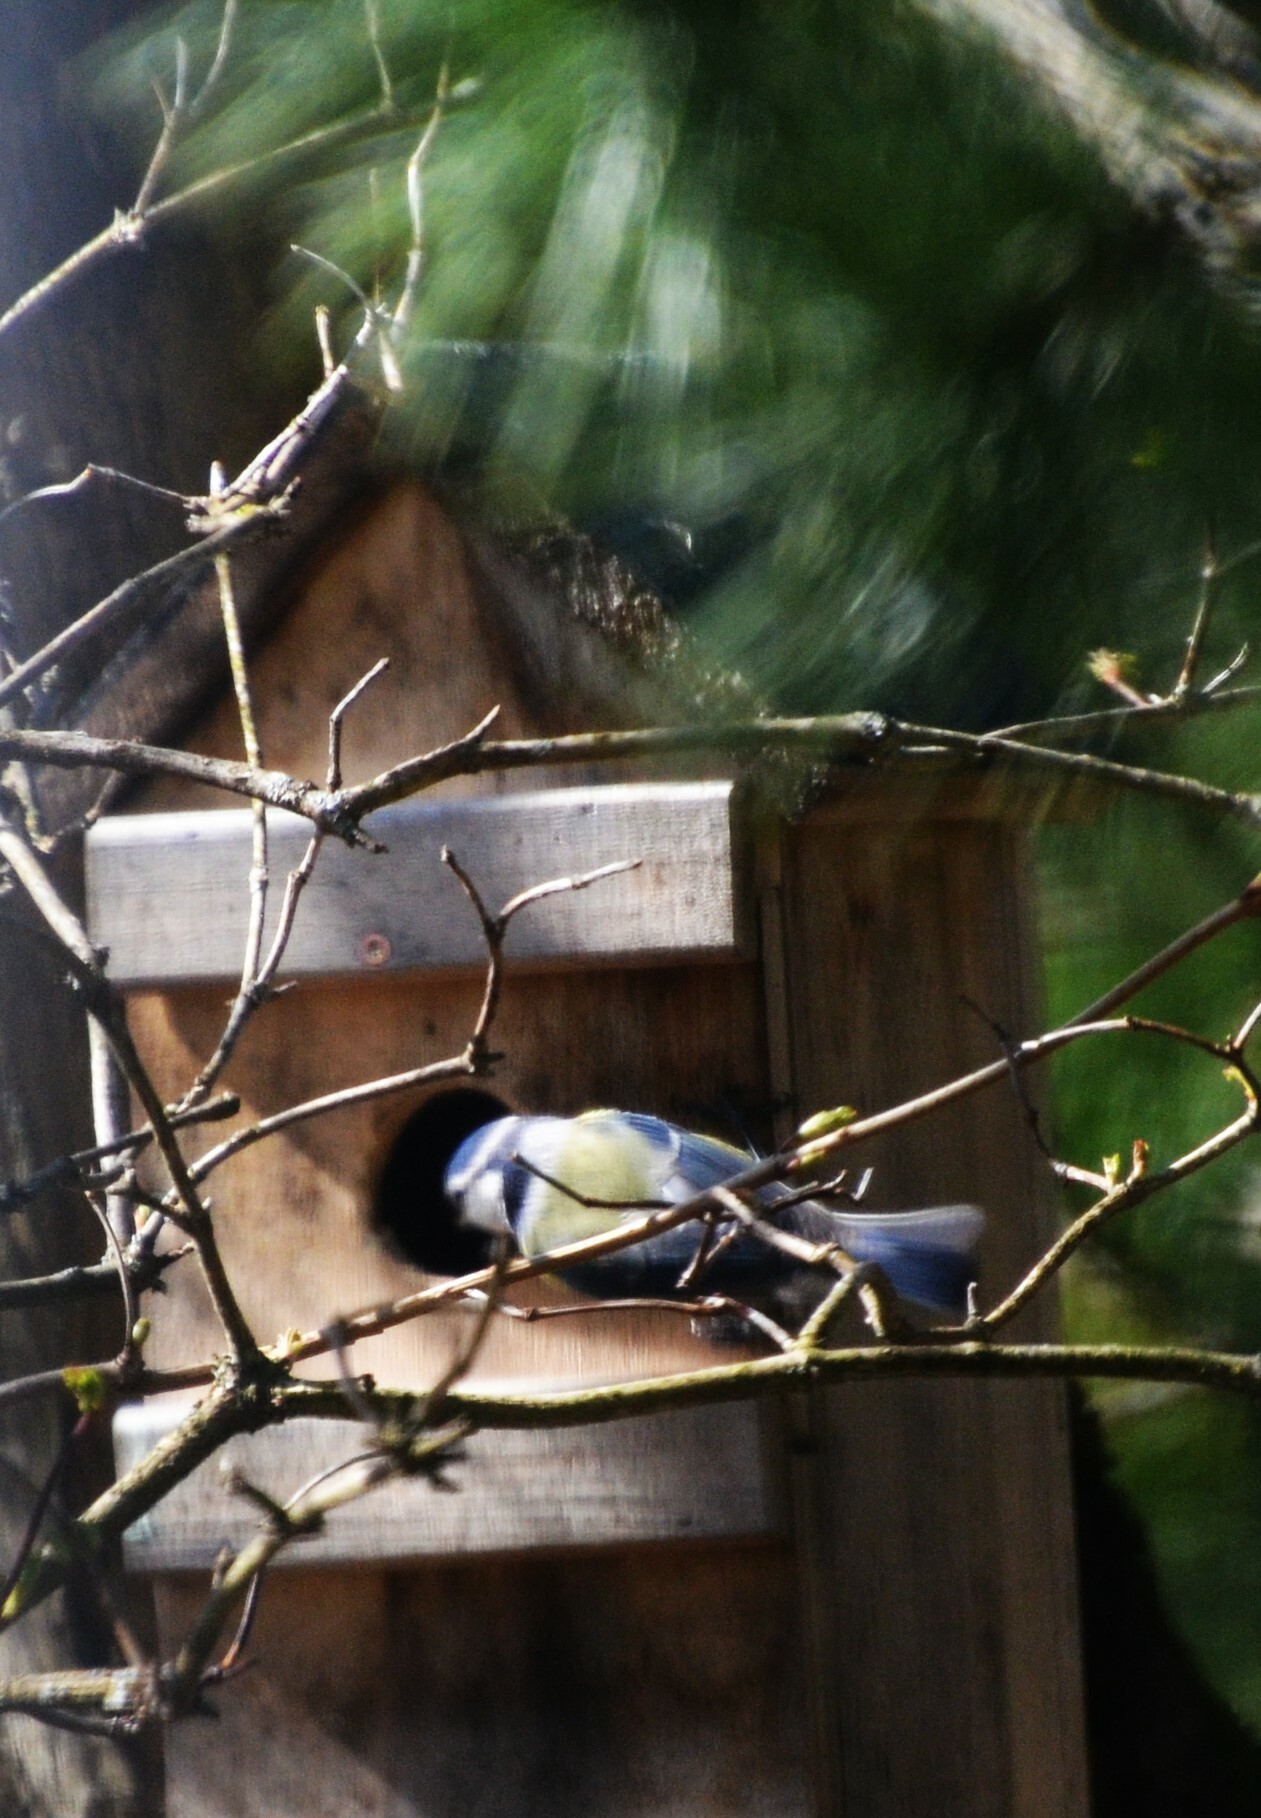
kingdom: Animalia
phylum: Chordata
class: Aves
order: Passeriformes
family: Paridae
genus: Cyanistes
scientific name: Cyanistes caeruleus
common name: Eurasian blue tit
